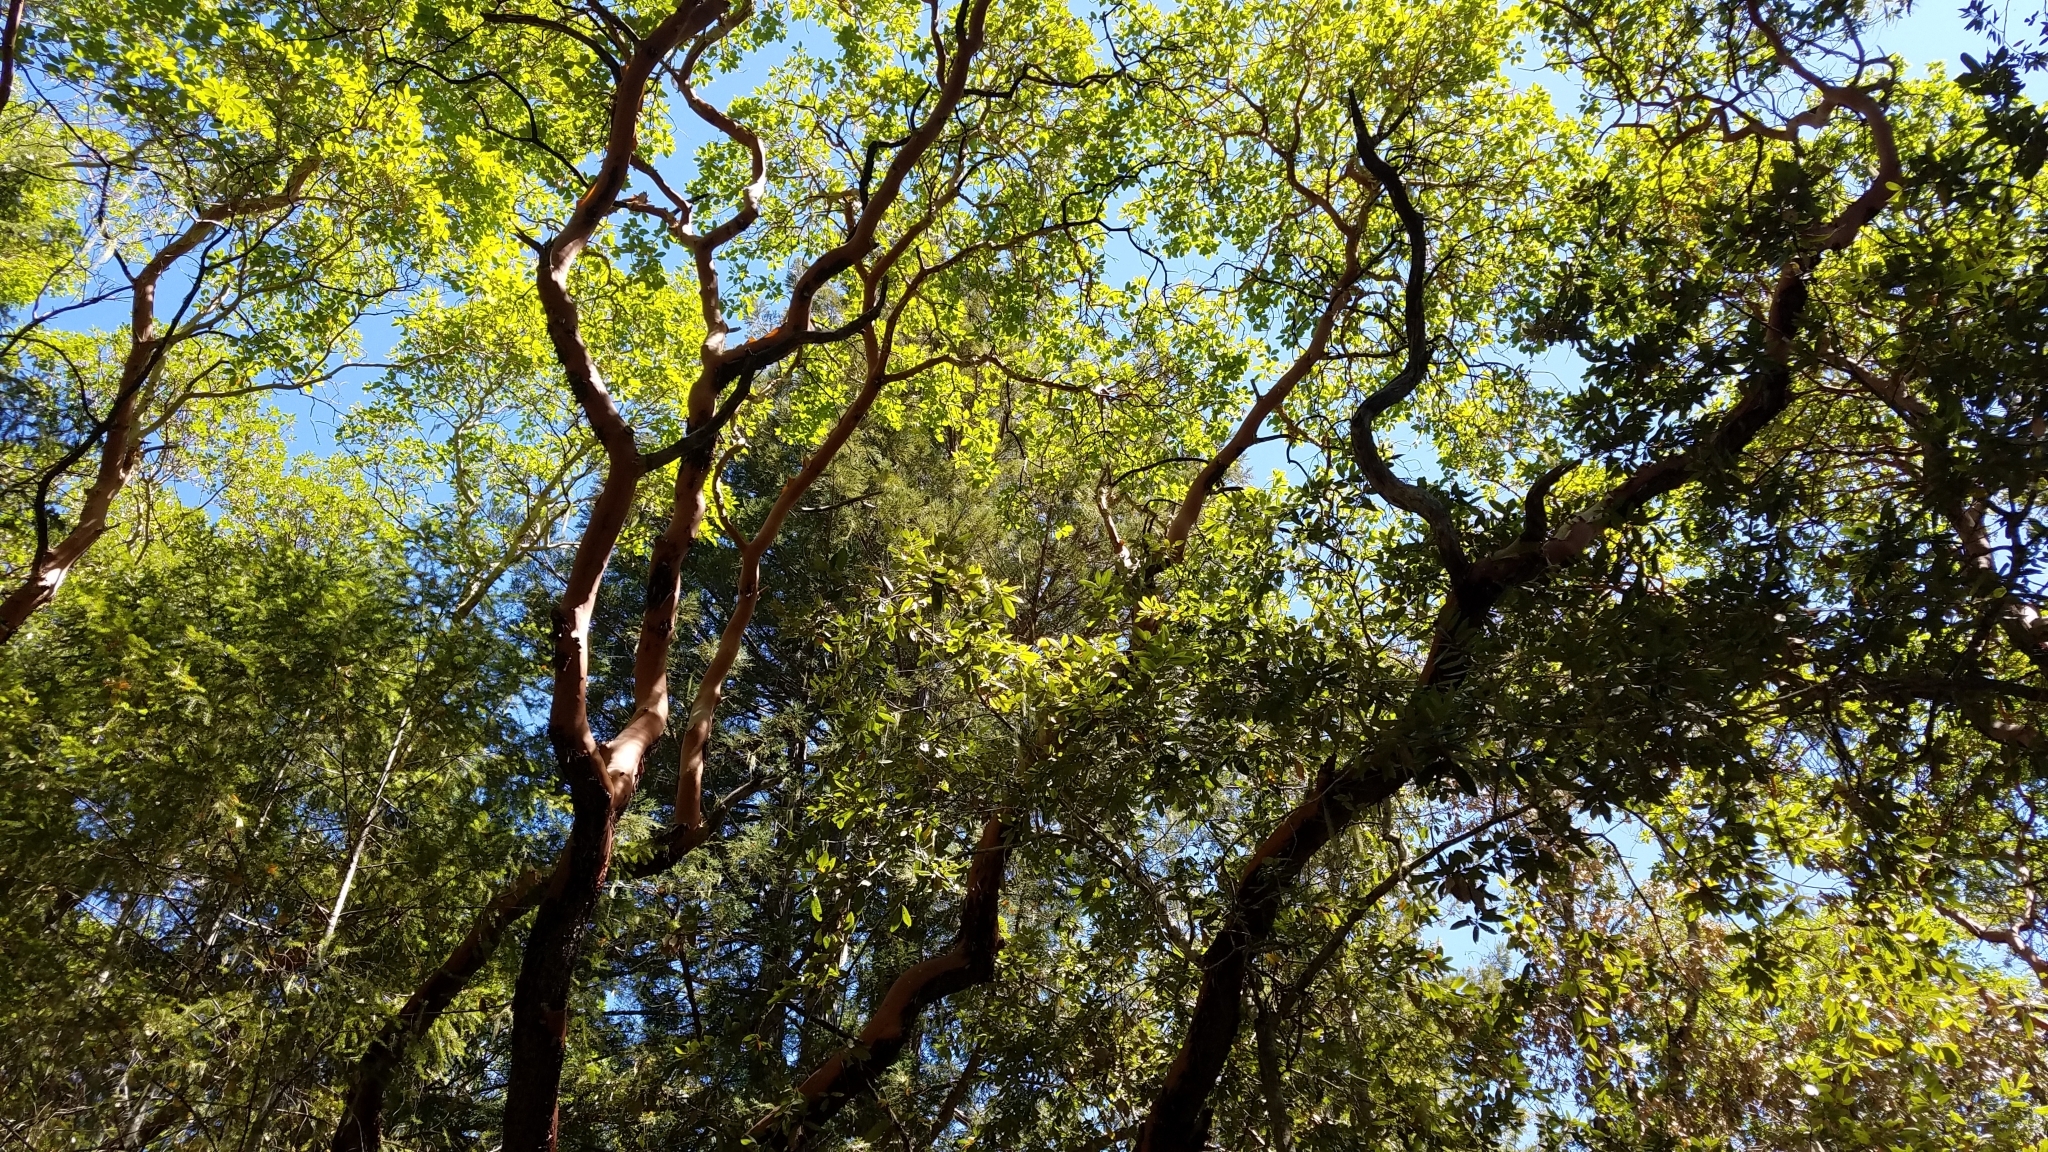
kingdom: Plantae
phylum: Tracheophyta
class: Magnoliopsida
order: Ericales
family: Ericaceae
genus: Arbutus
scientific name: Arbutus menziesii
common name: Pacific madrone
